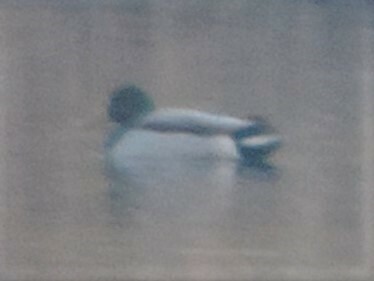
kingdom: Animalia
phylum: Chordata
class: Aves
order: Anseriformes
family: Anatidae
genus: Anas
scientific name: Anas platyrhynchos
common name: Mallard
